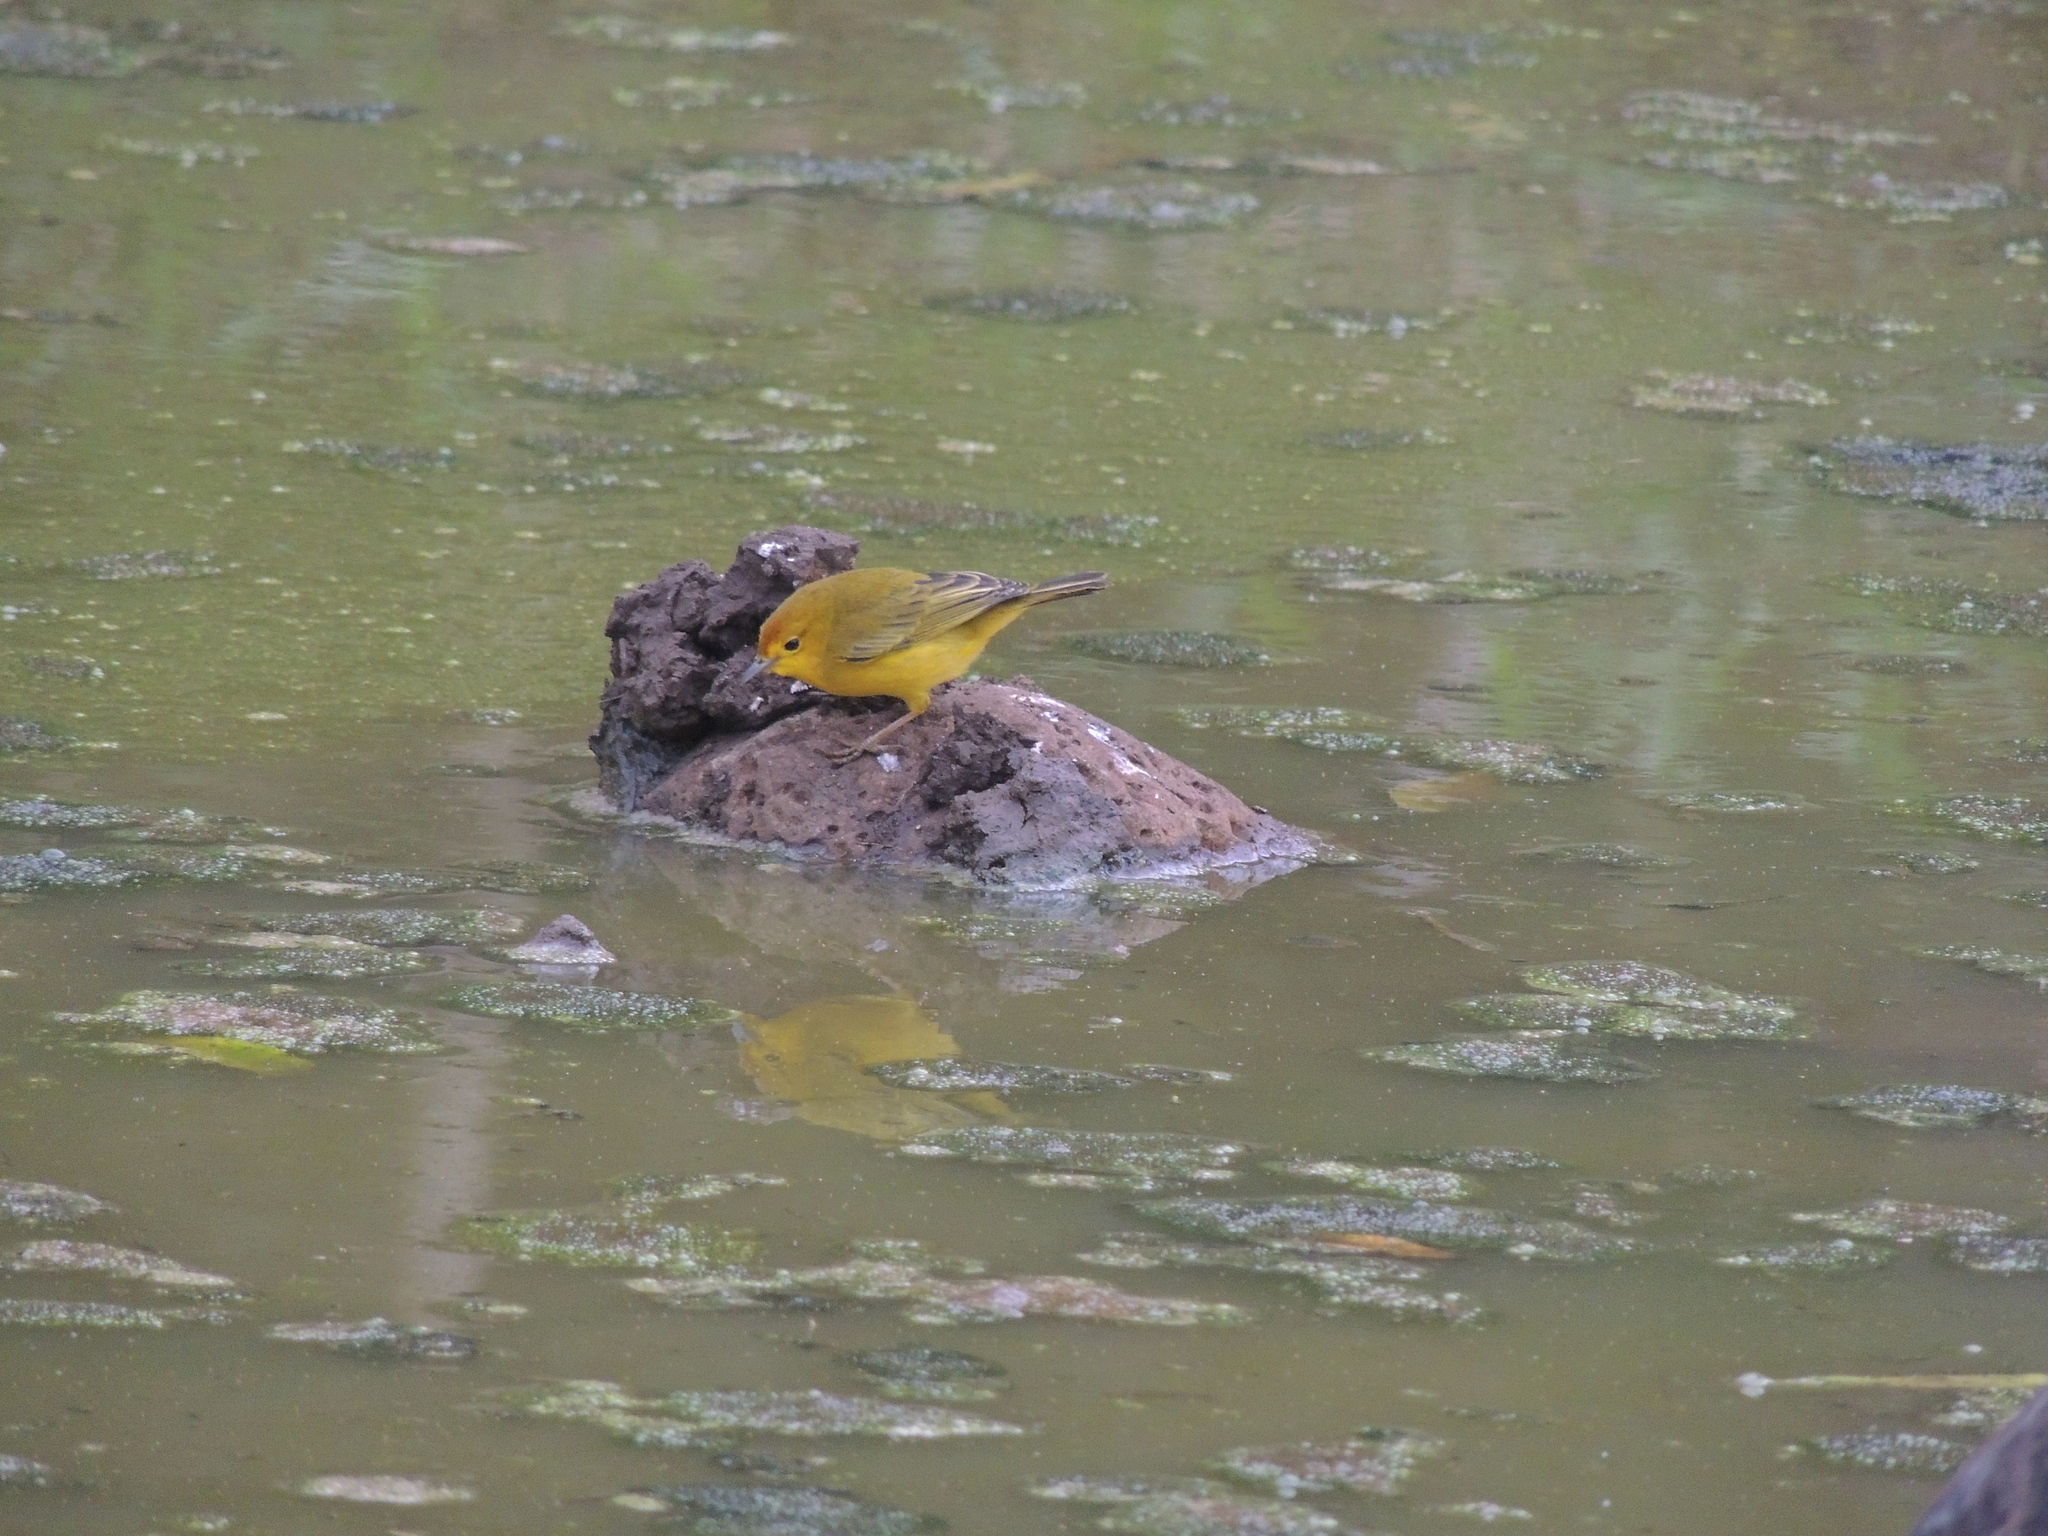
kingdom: Animalia
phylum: Chordata
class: Aves
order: Passeriformes
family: Parulidae
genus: Setophaga
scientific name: Setophaga petechia
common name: Yellow warbler
